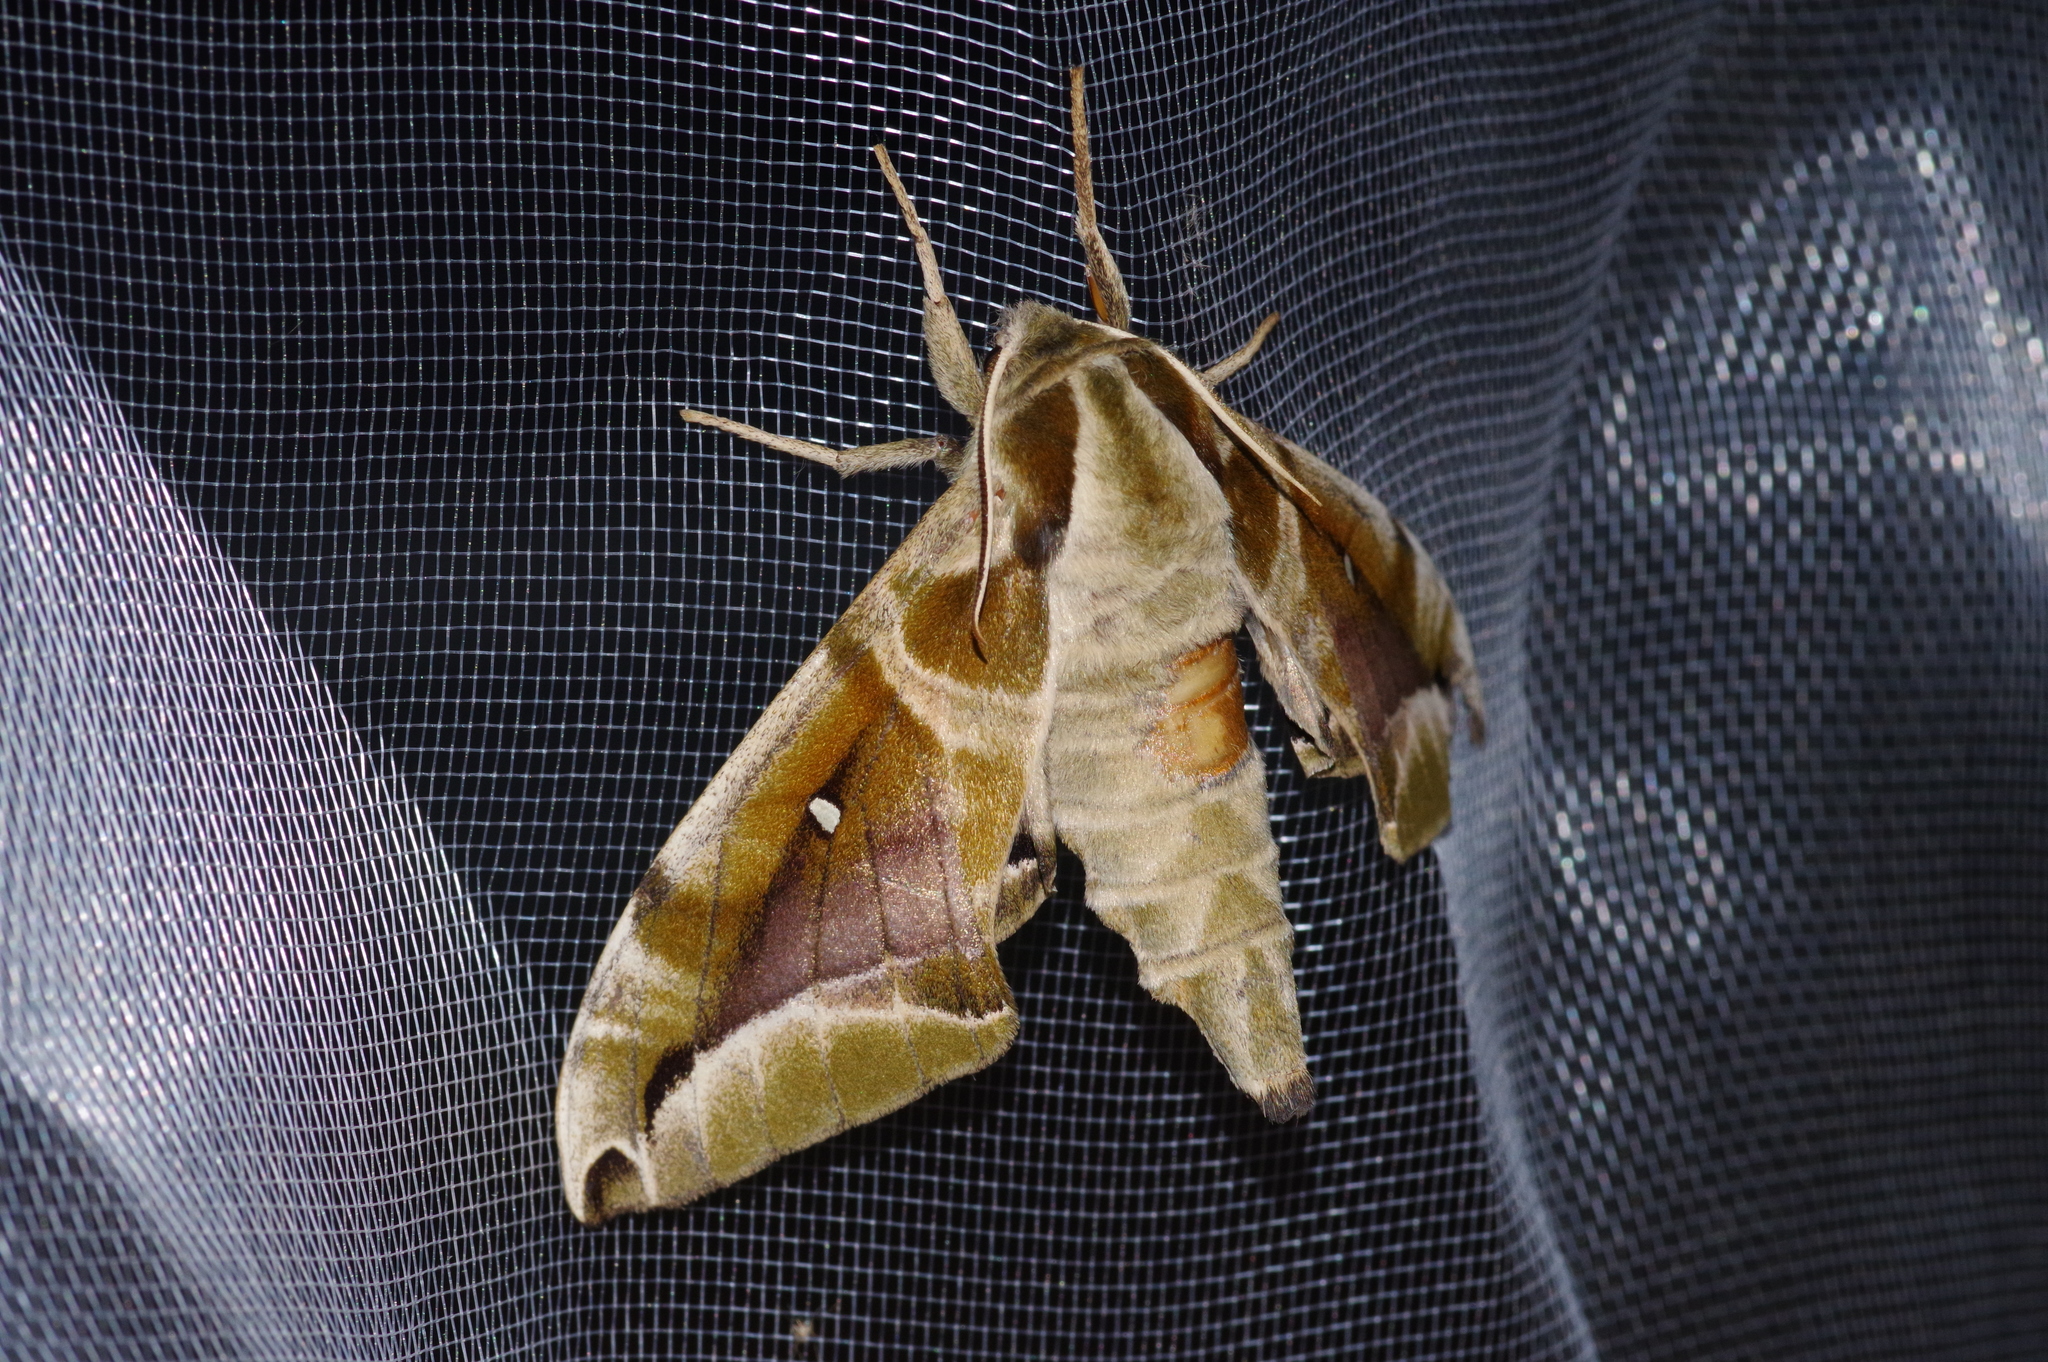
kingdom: Animalia
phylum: Arthropoda
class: Insecta
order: Lepidoptera
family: Sphingidae
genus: Parum
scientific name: Parum colligata
